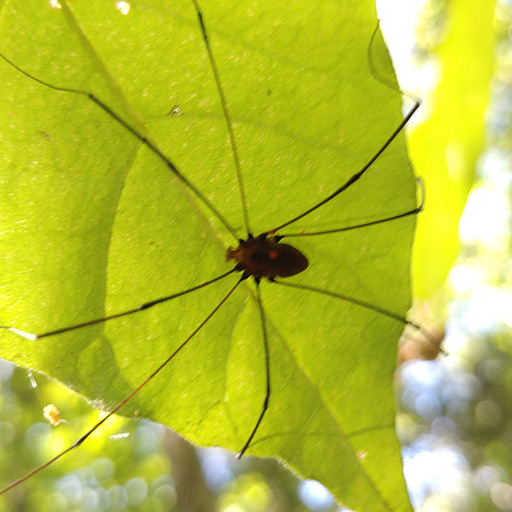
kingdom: Animalia
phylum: Arthropoda
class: Arachnida
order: Opiliones
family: Sclerosomatidae
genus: Leiobunum
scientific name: Leiobunum vittatum
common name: Eastern harvestman
